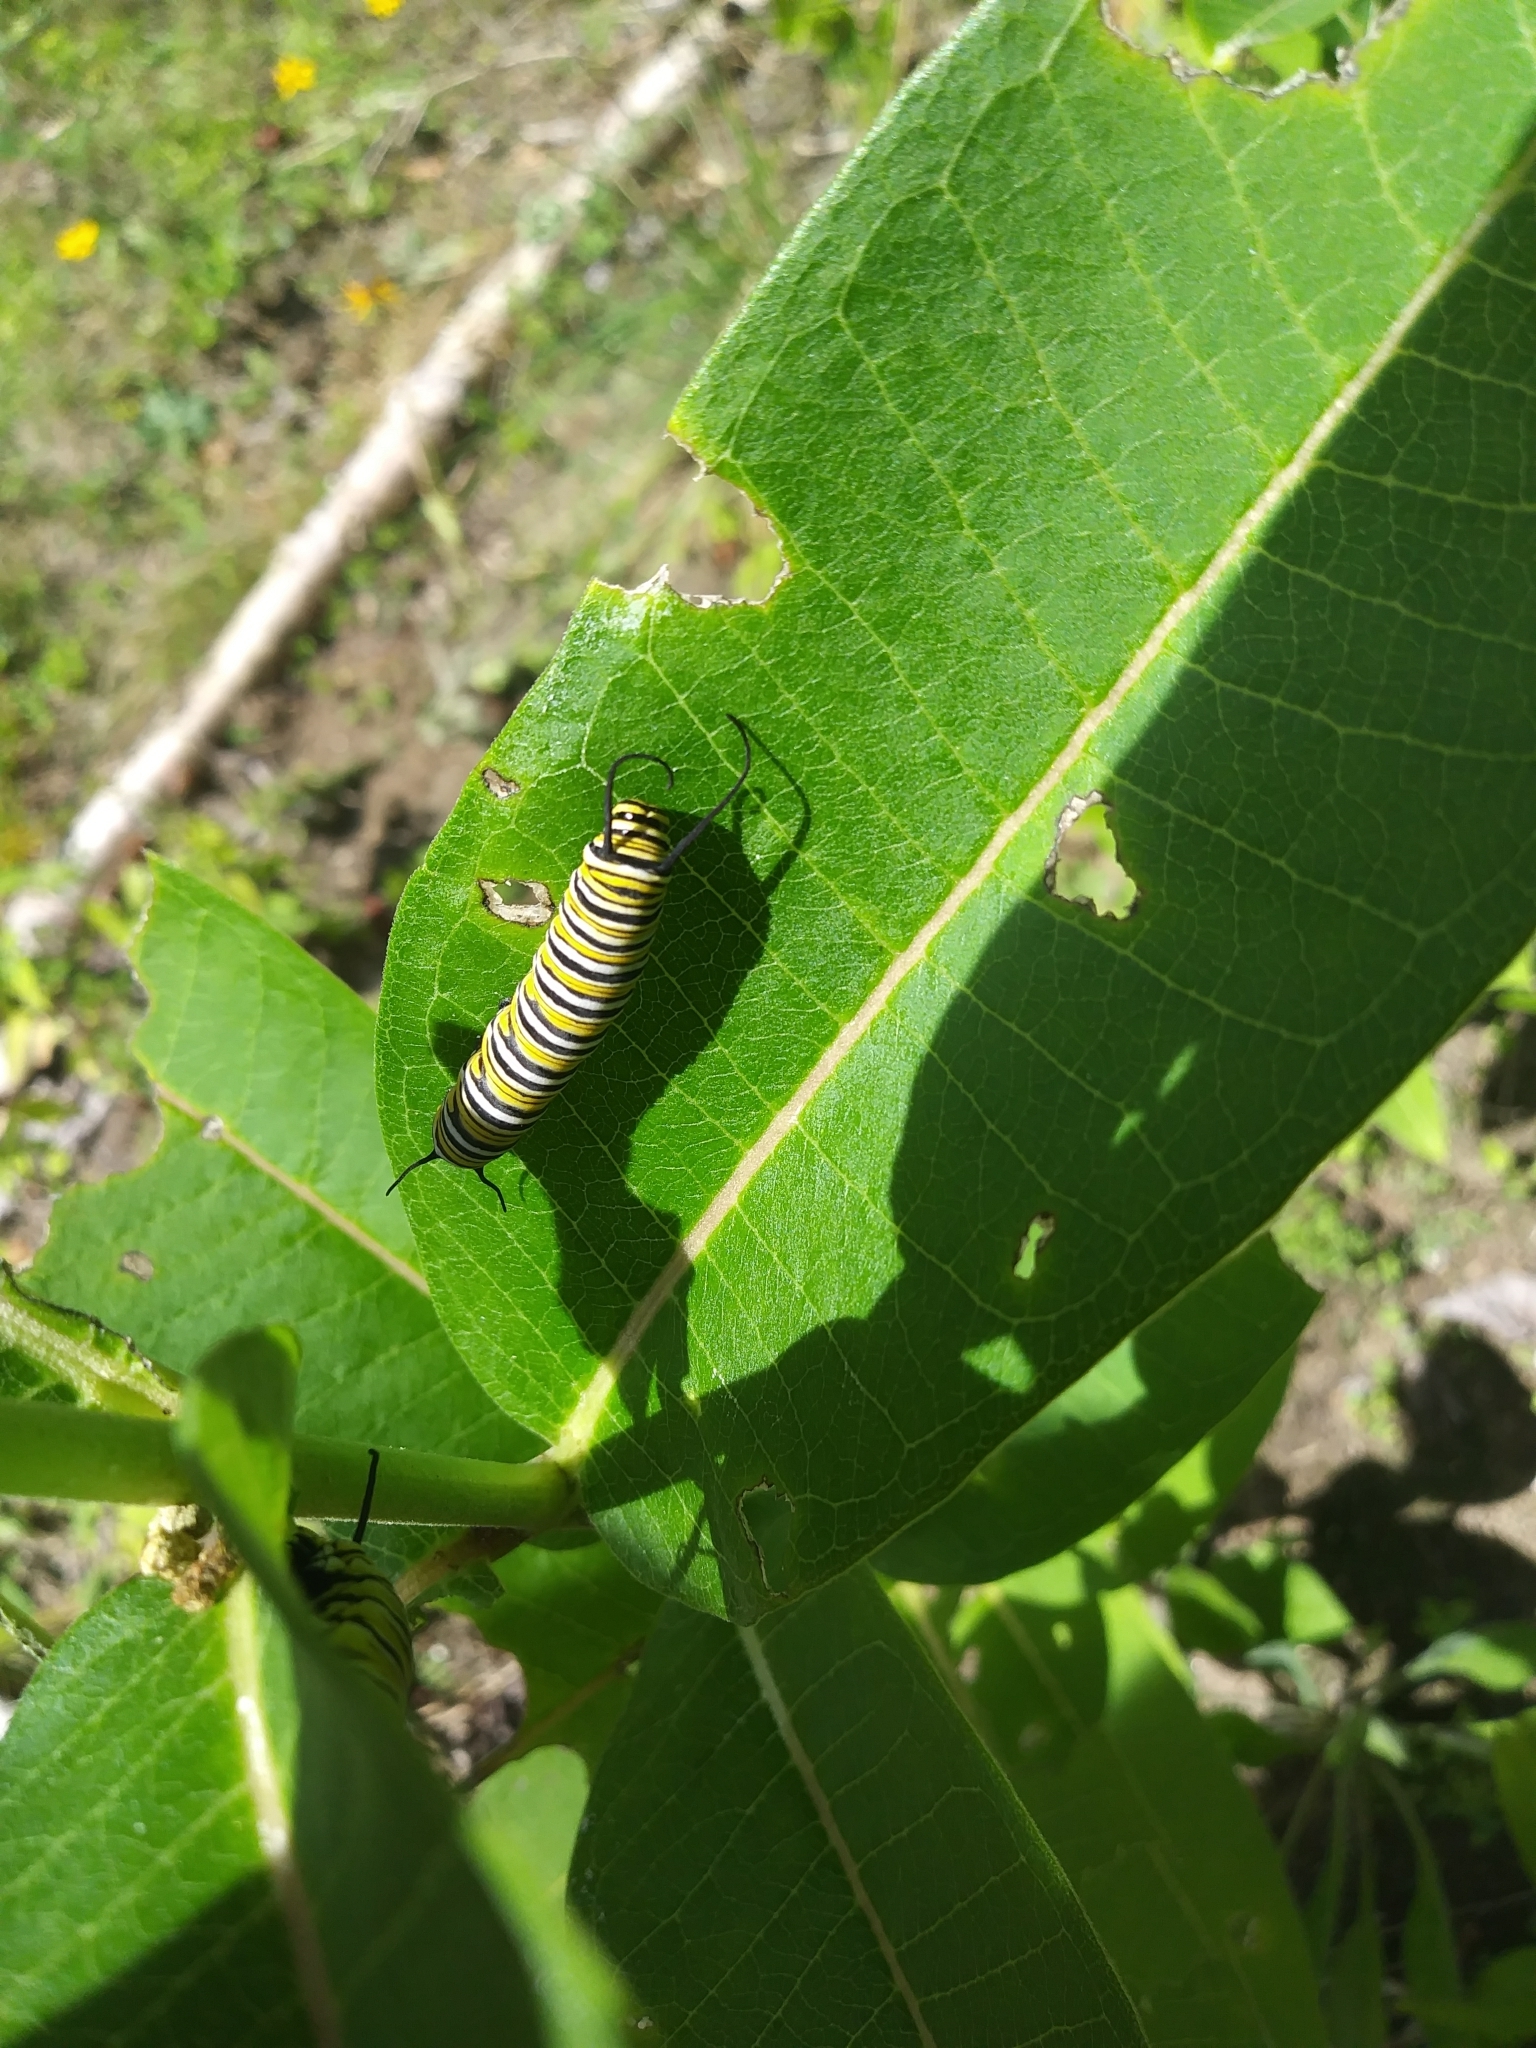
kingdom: Animalia
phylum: Arthropoda
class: Insecta
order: Lepidoptera
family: Nymphalidae
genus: Danaus
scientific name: Danaus plexippus
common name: Monarch
